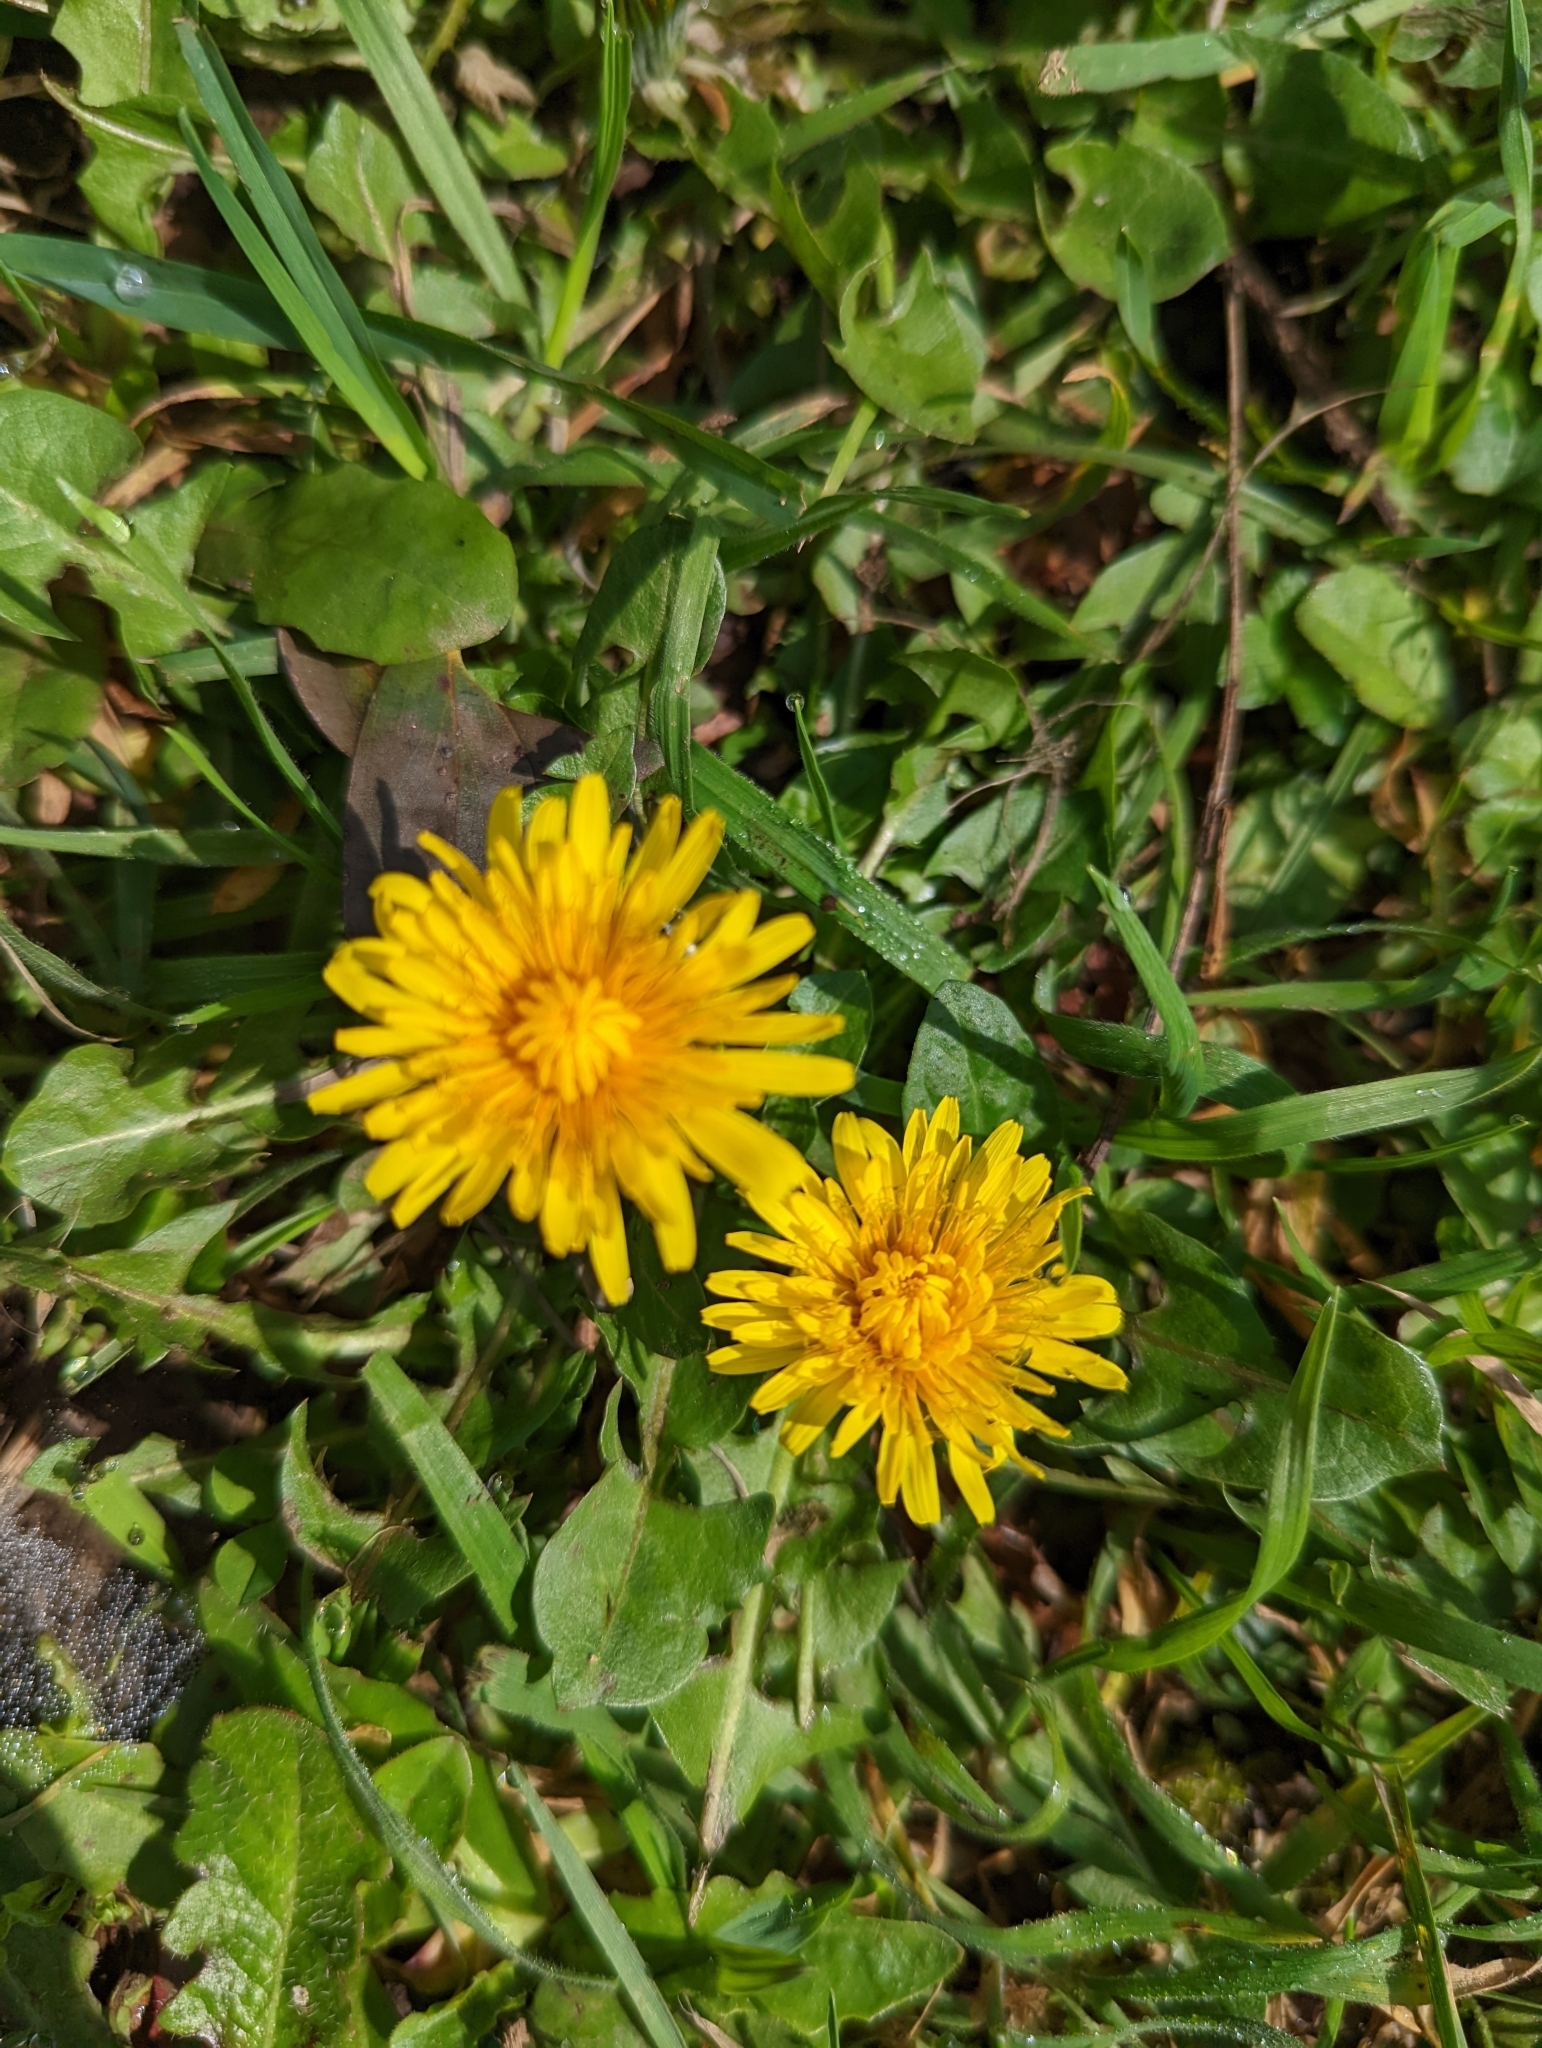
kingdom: Plantae
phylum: Tracheophyta
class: Magnoliopsida
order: Asterales
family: Asteraceae
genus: Taraxacum
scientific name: Taraxacum officinale
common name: Common dandelion
